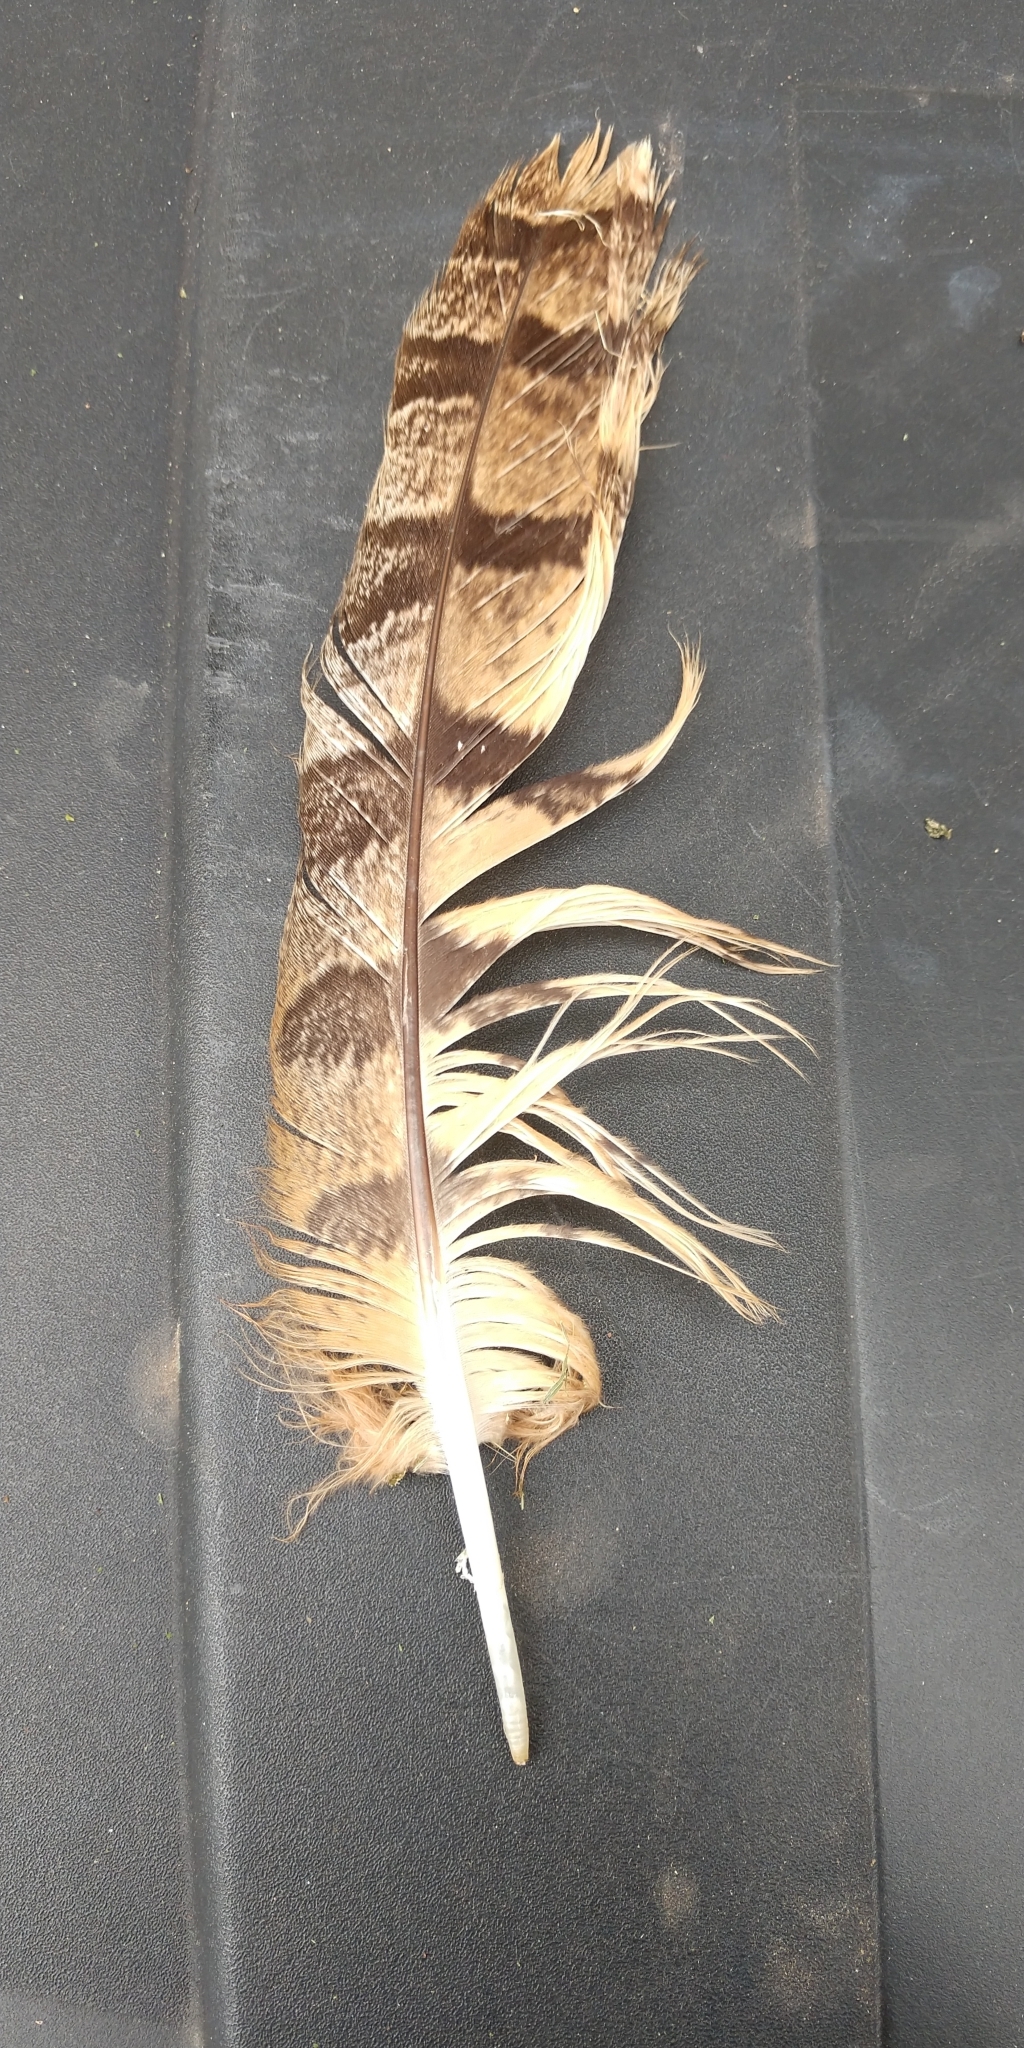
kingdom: Animalia
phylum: Chordata
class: Aves
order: Strigiformes
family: Strigidae
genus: Bubo
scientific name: Bubo virginianus
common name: Great horned owl
